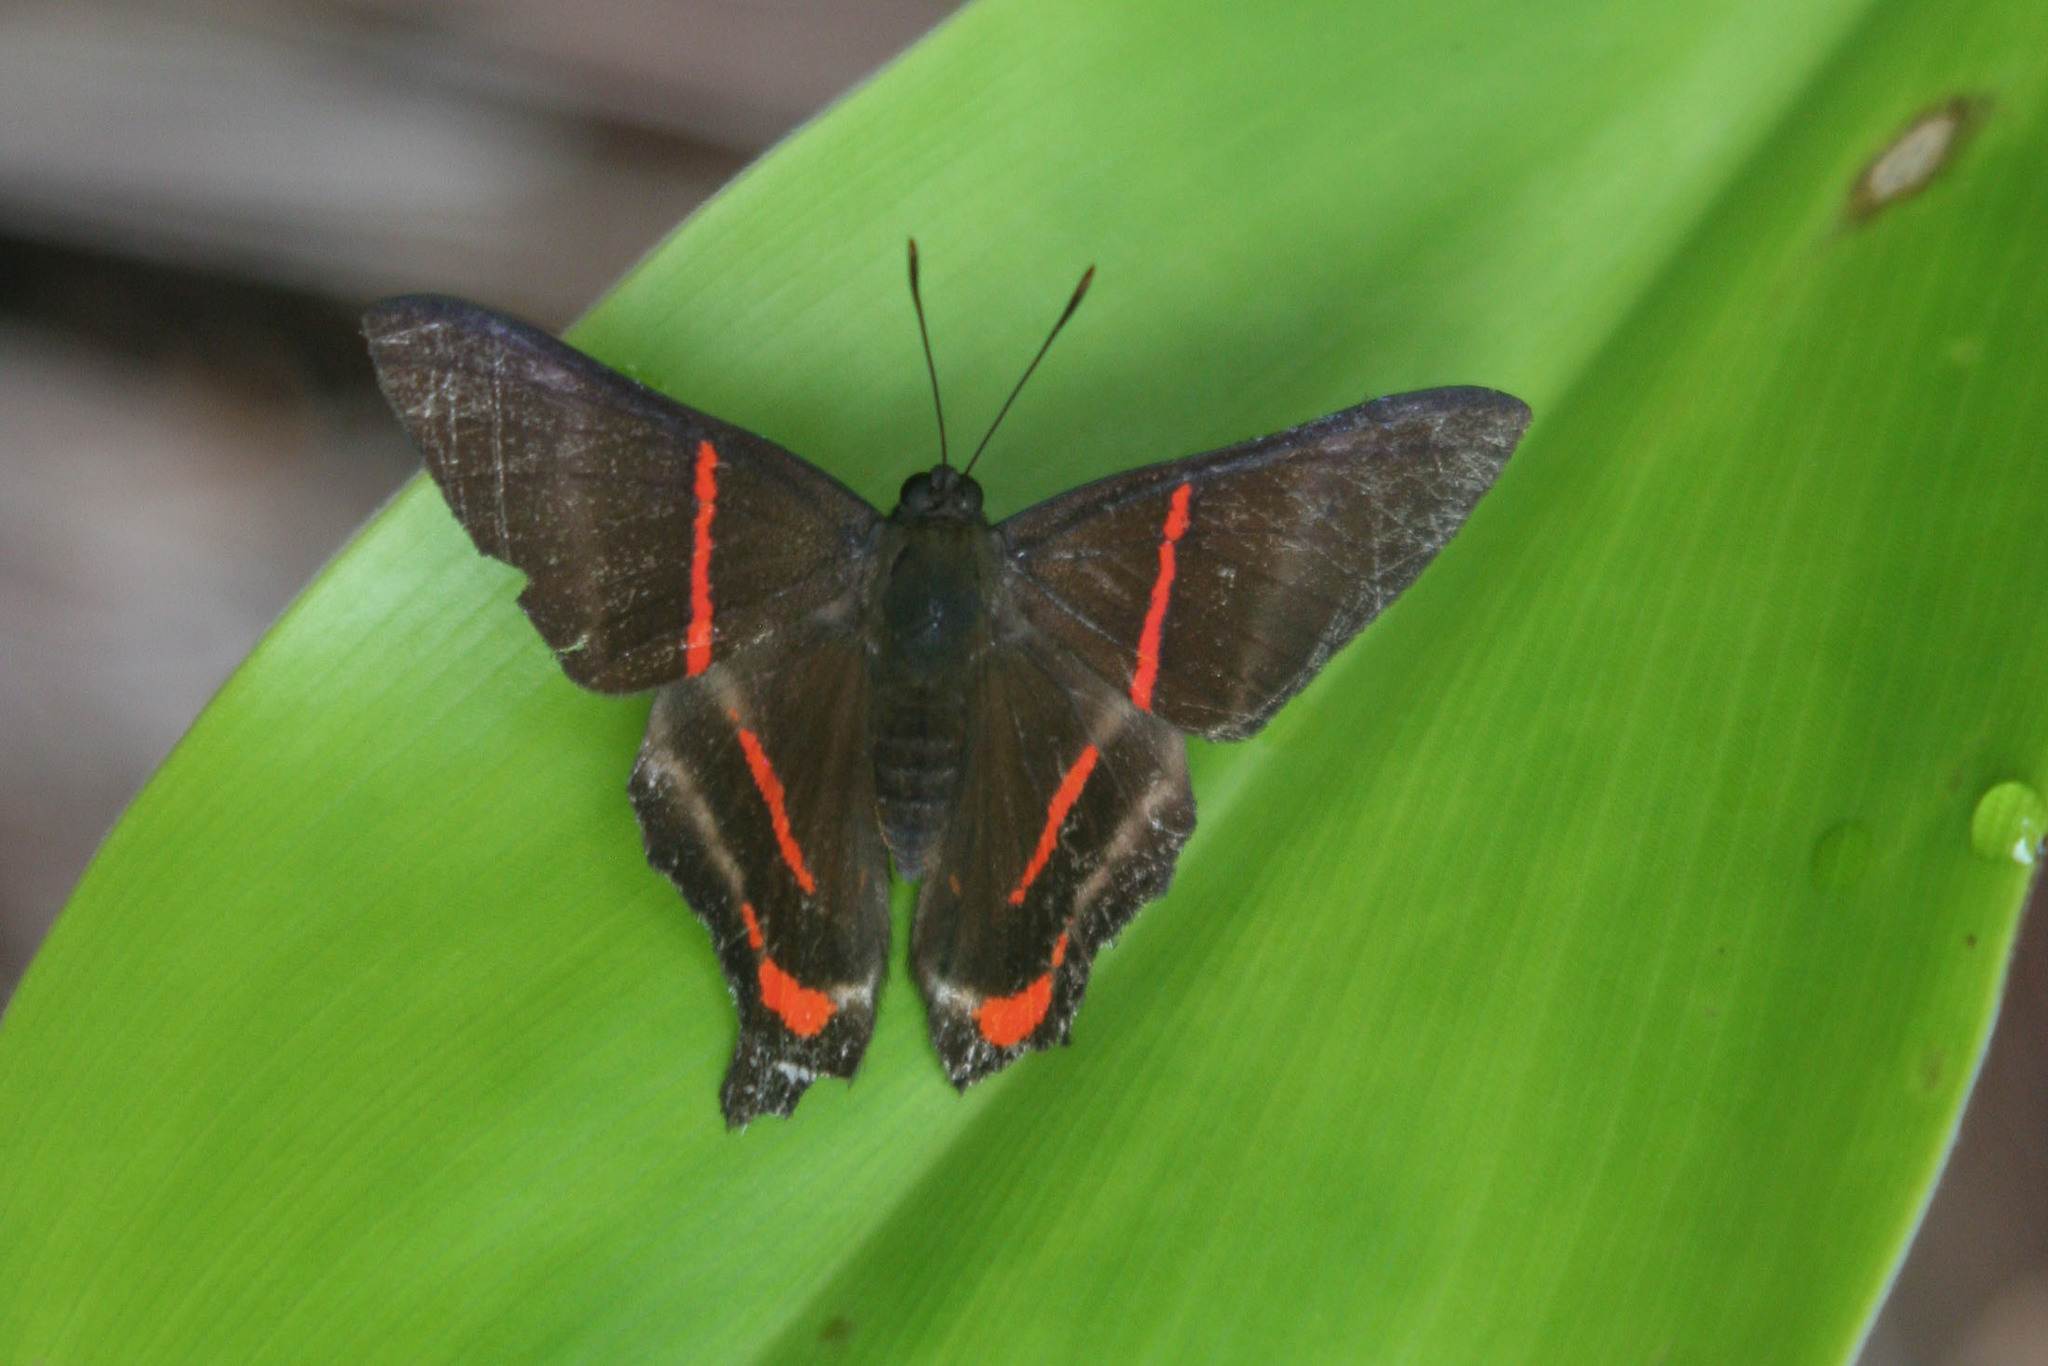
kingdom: Animalia
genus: Ancyluris
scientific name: Ancyluris tedea
